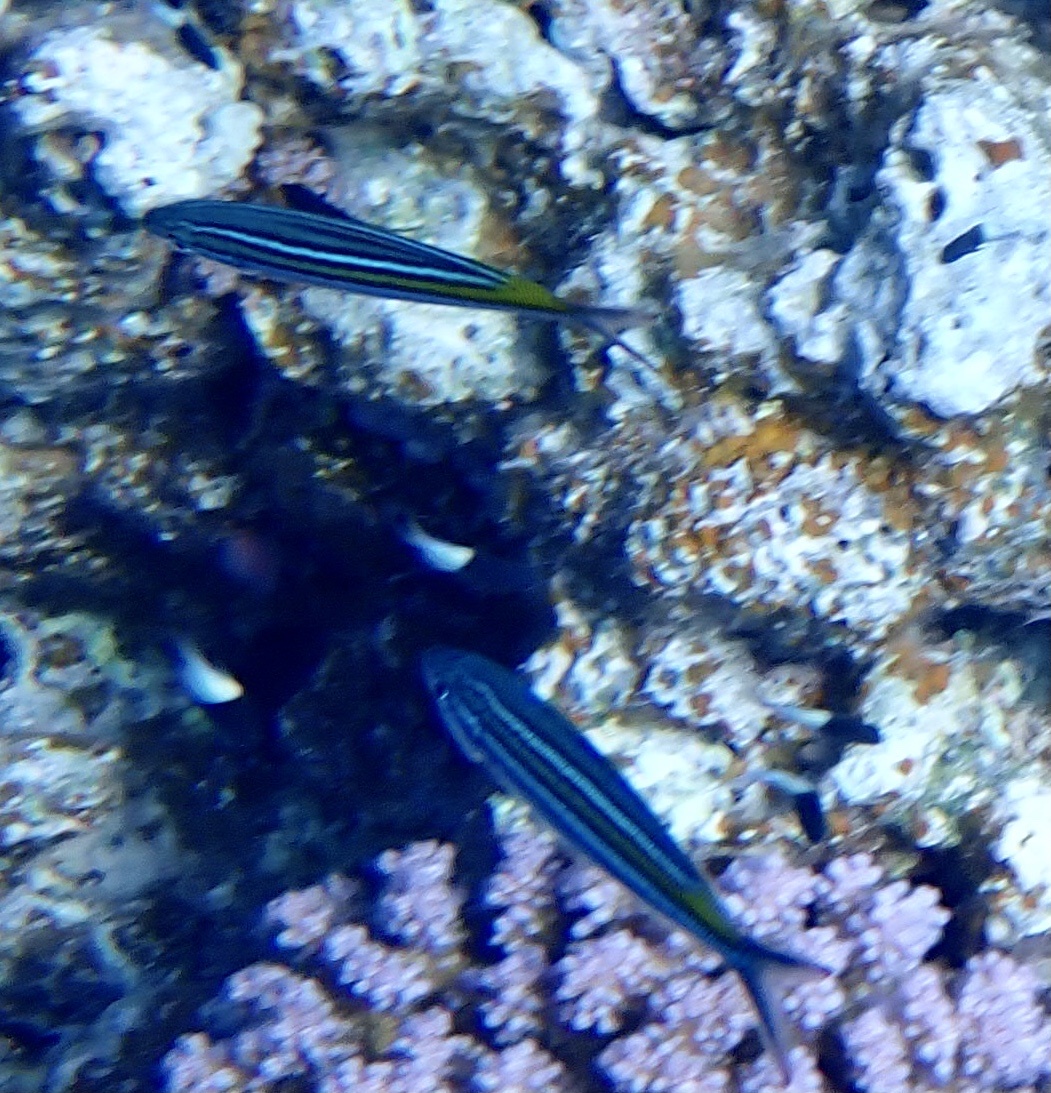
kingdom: Animalia
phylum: Chordata
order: Perciformes
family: Caesionidae
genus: Caesio
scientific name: Caesio striata
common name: Striated fusilier
